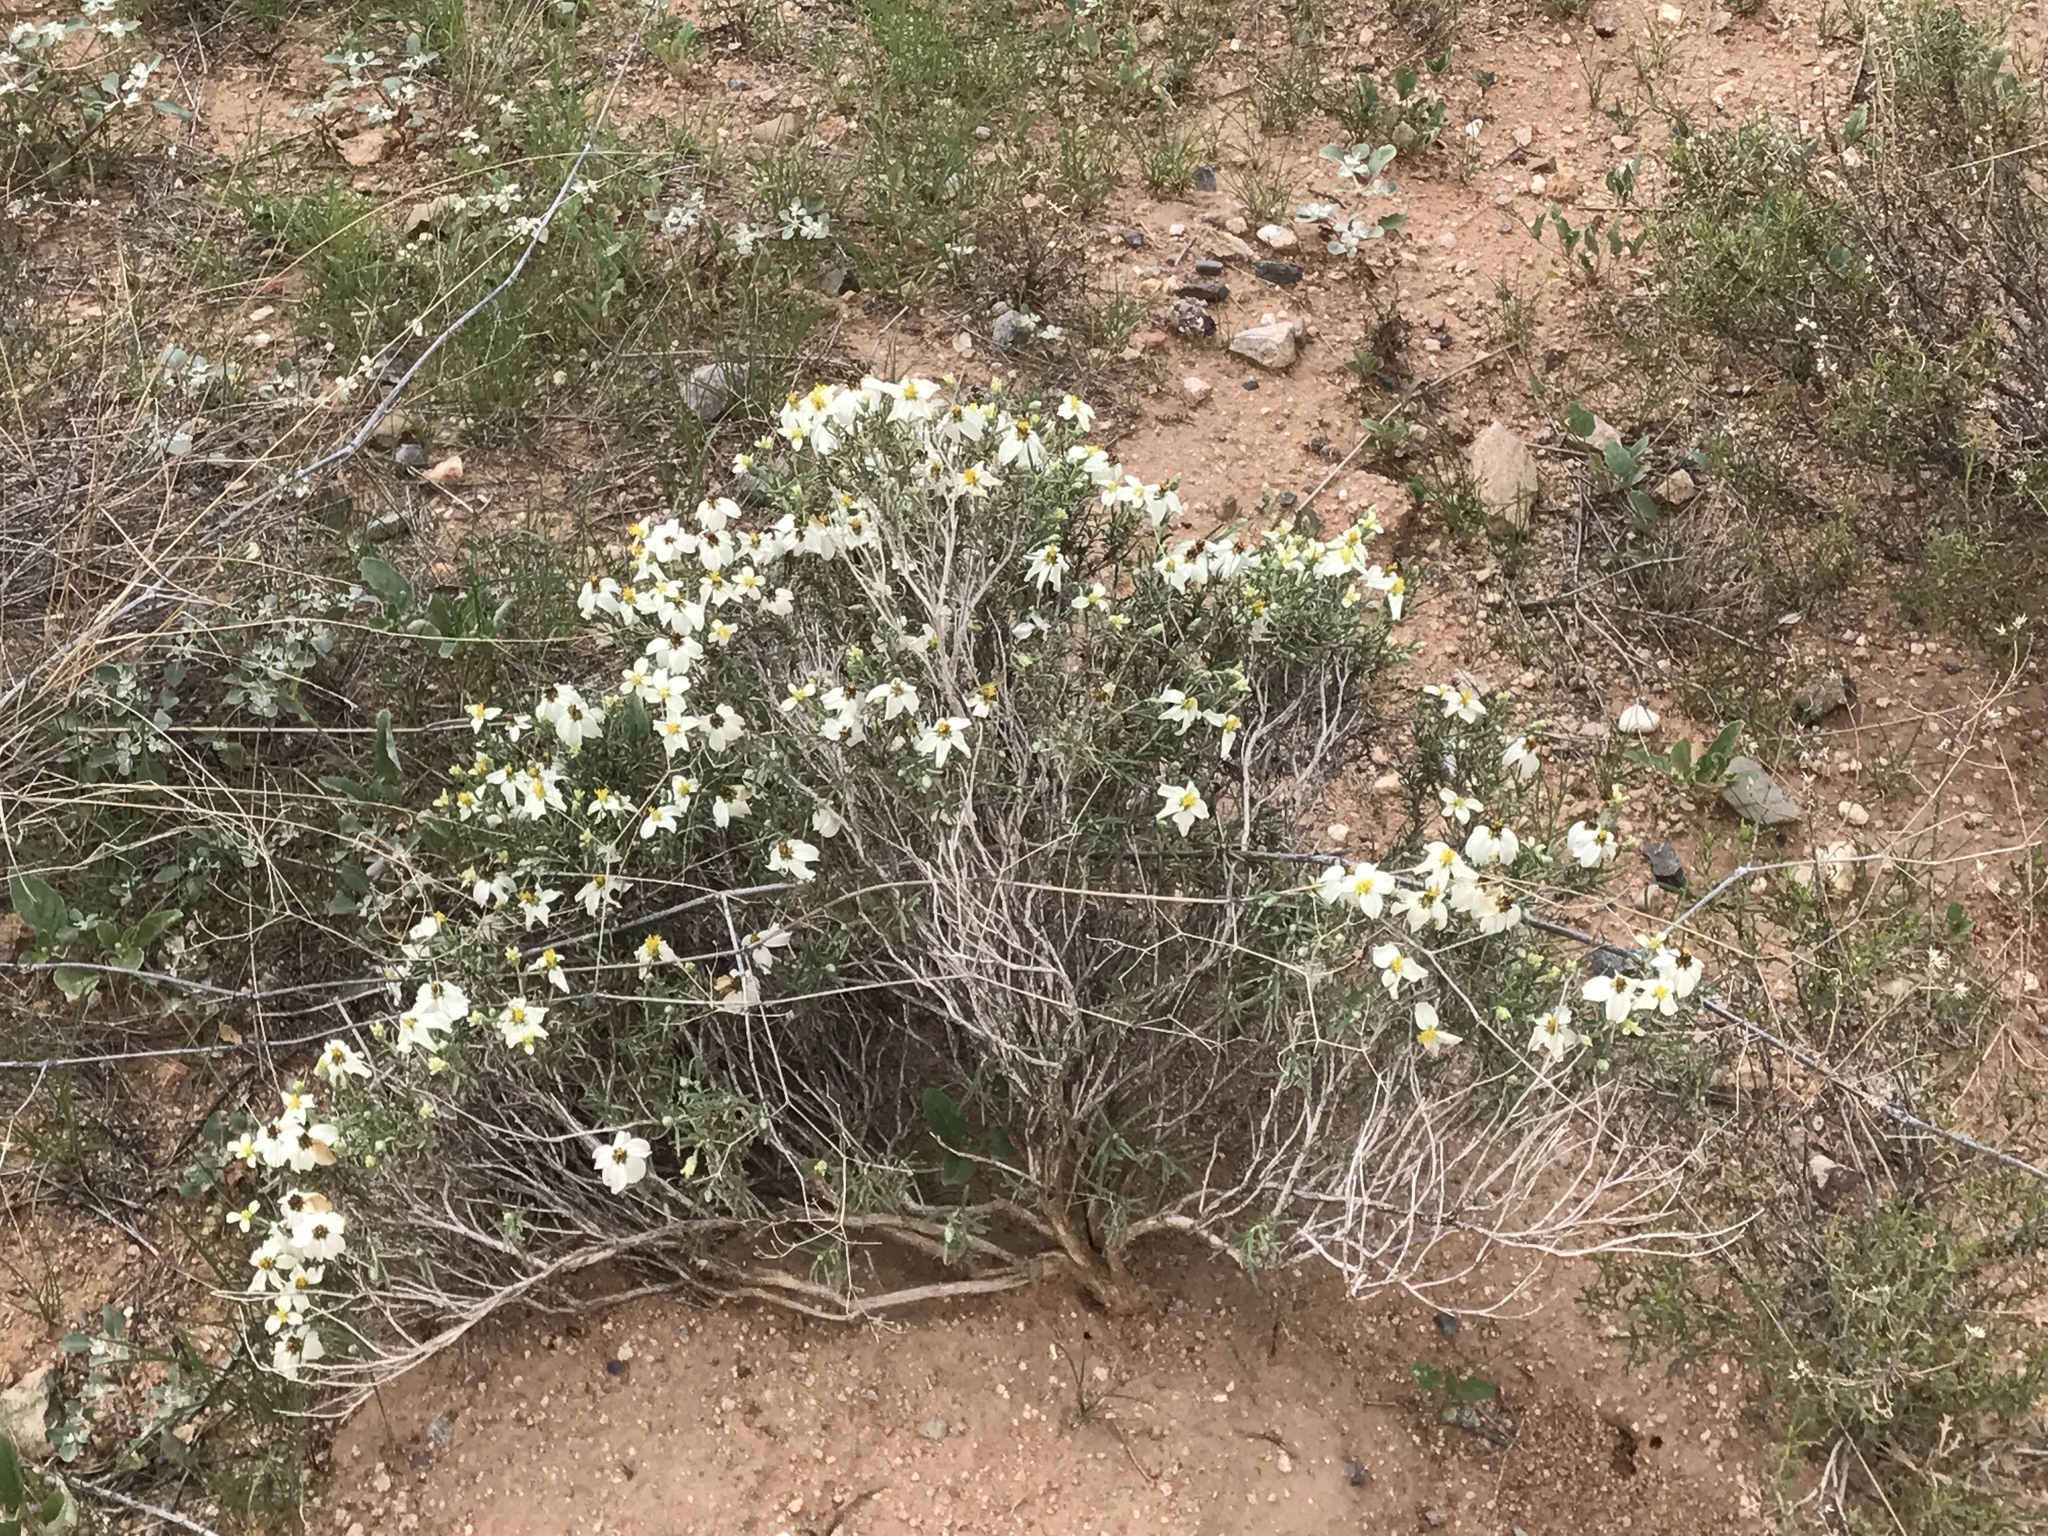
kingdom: Plantae
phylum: Tracheophyta
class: Magnoliopsida
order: Asterales
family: Asteraceae
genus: Zinnia
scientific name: Zinnia acerosa
